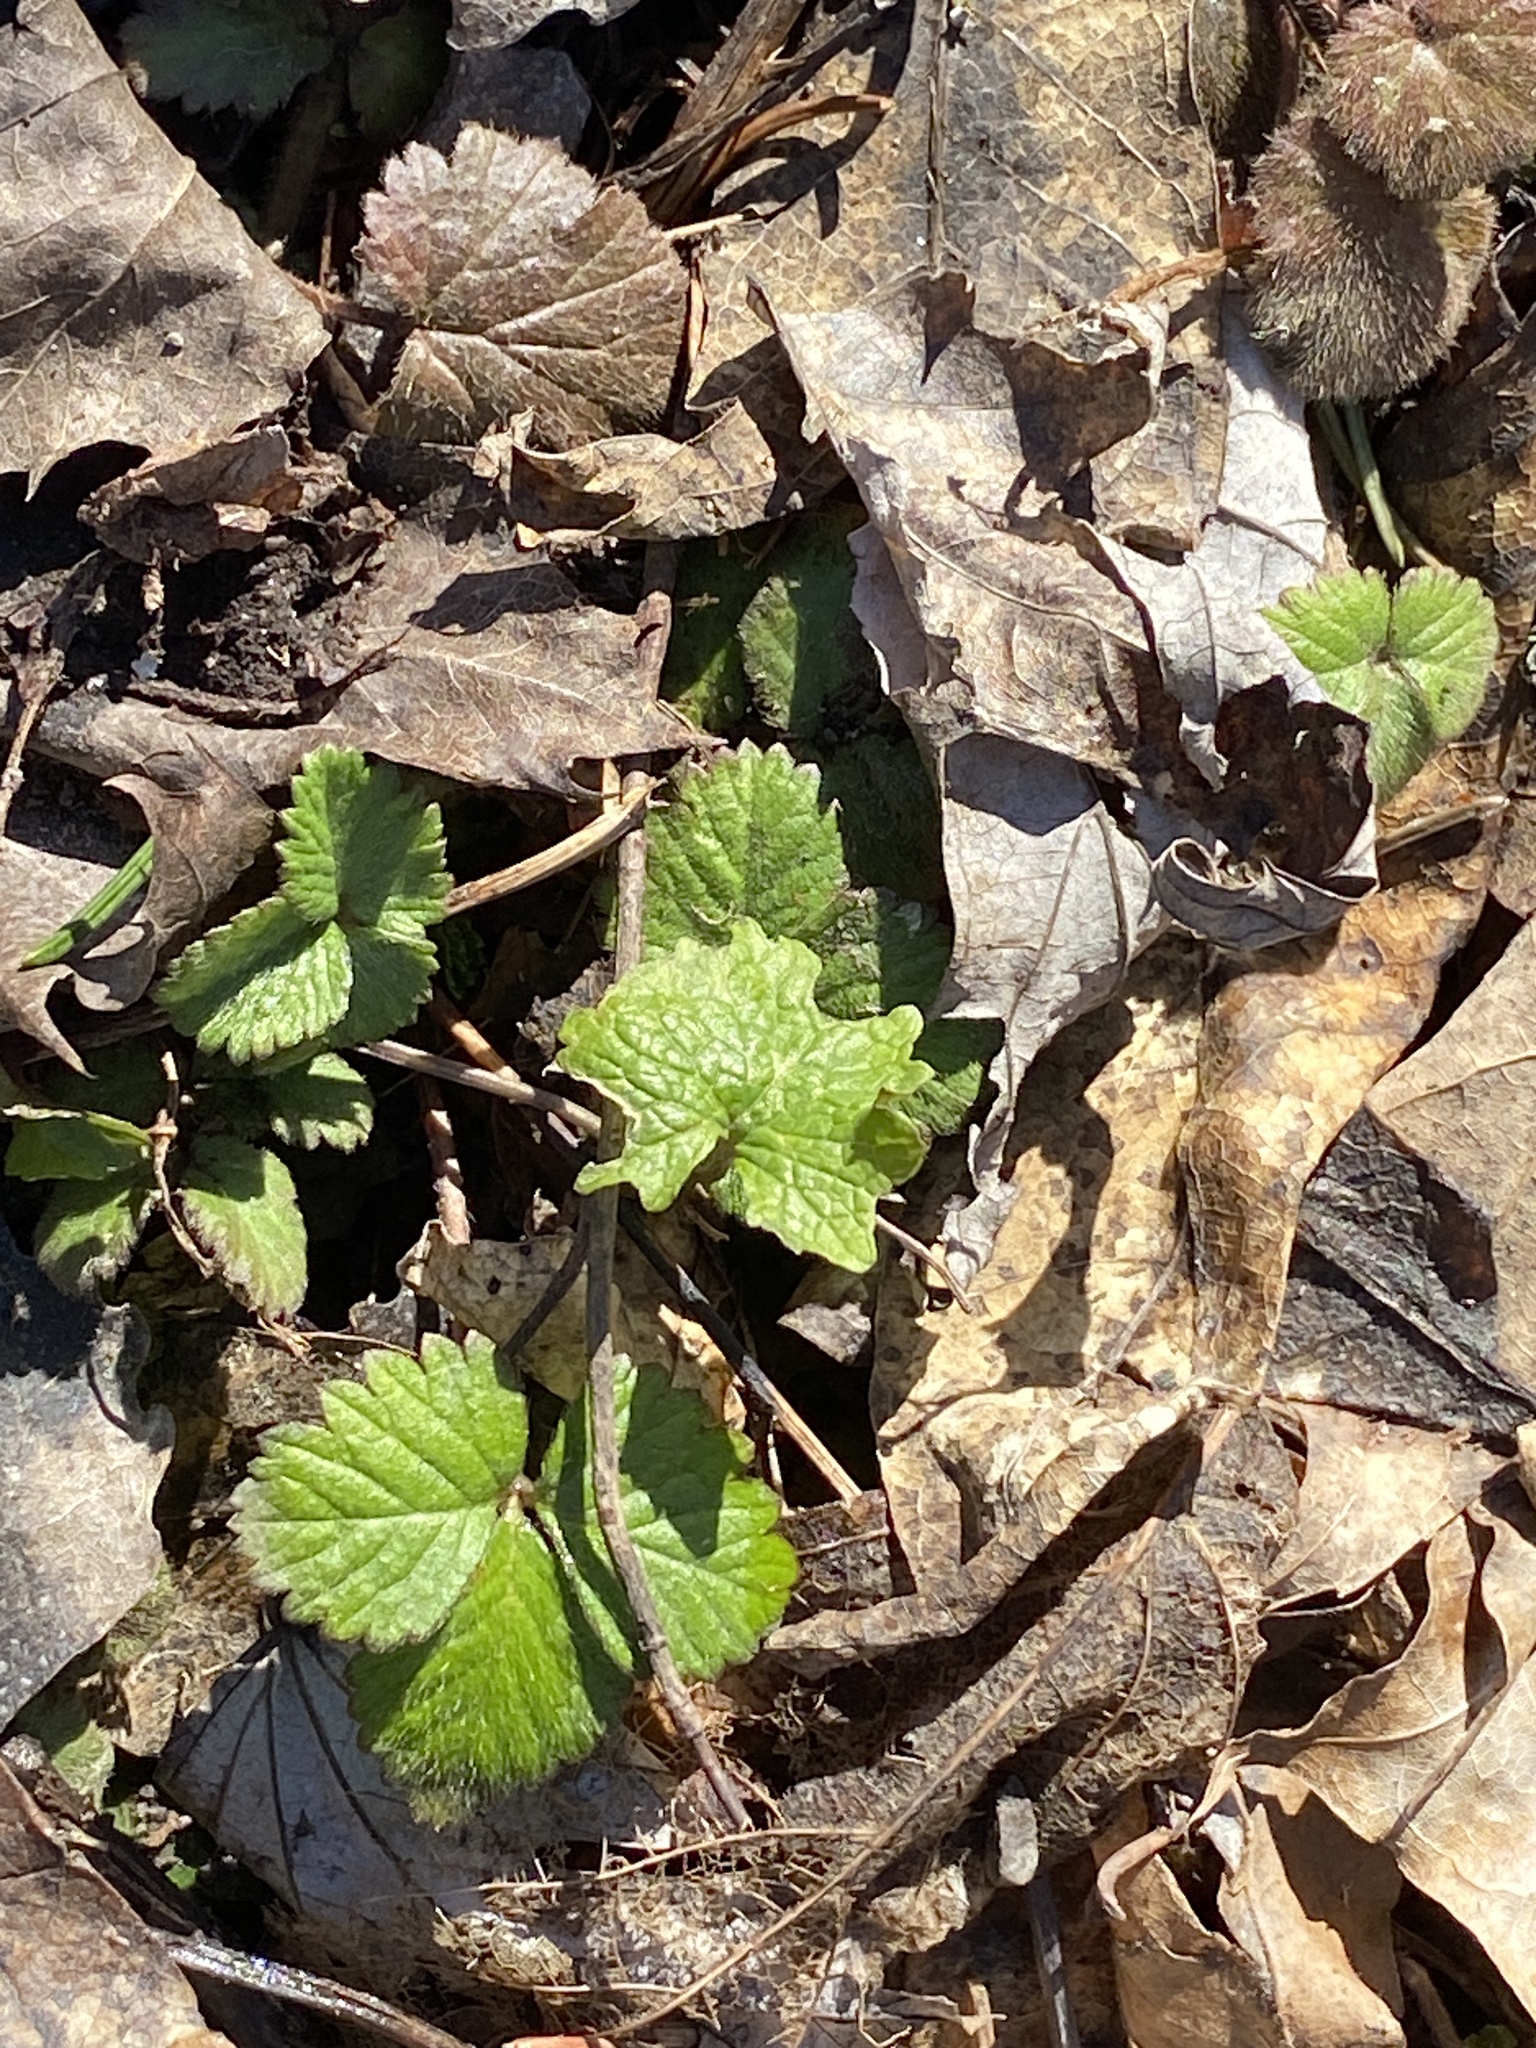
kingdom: Plantae
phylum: Tracheophyta
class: Magnoliopsida
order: Rosales
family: Rosaceae
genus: Potentilla
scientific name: Potentilla indica
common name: Yellow-flowered strawberry
